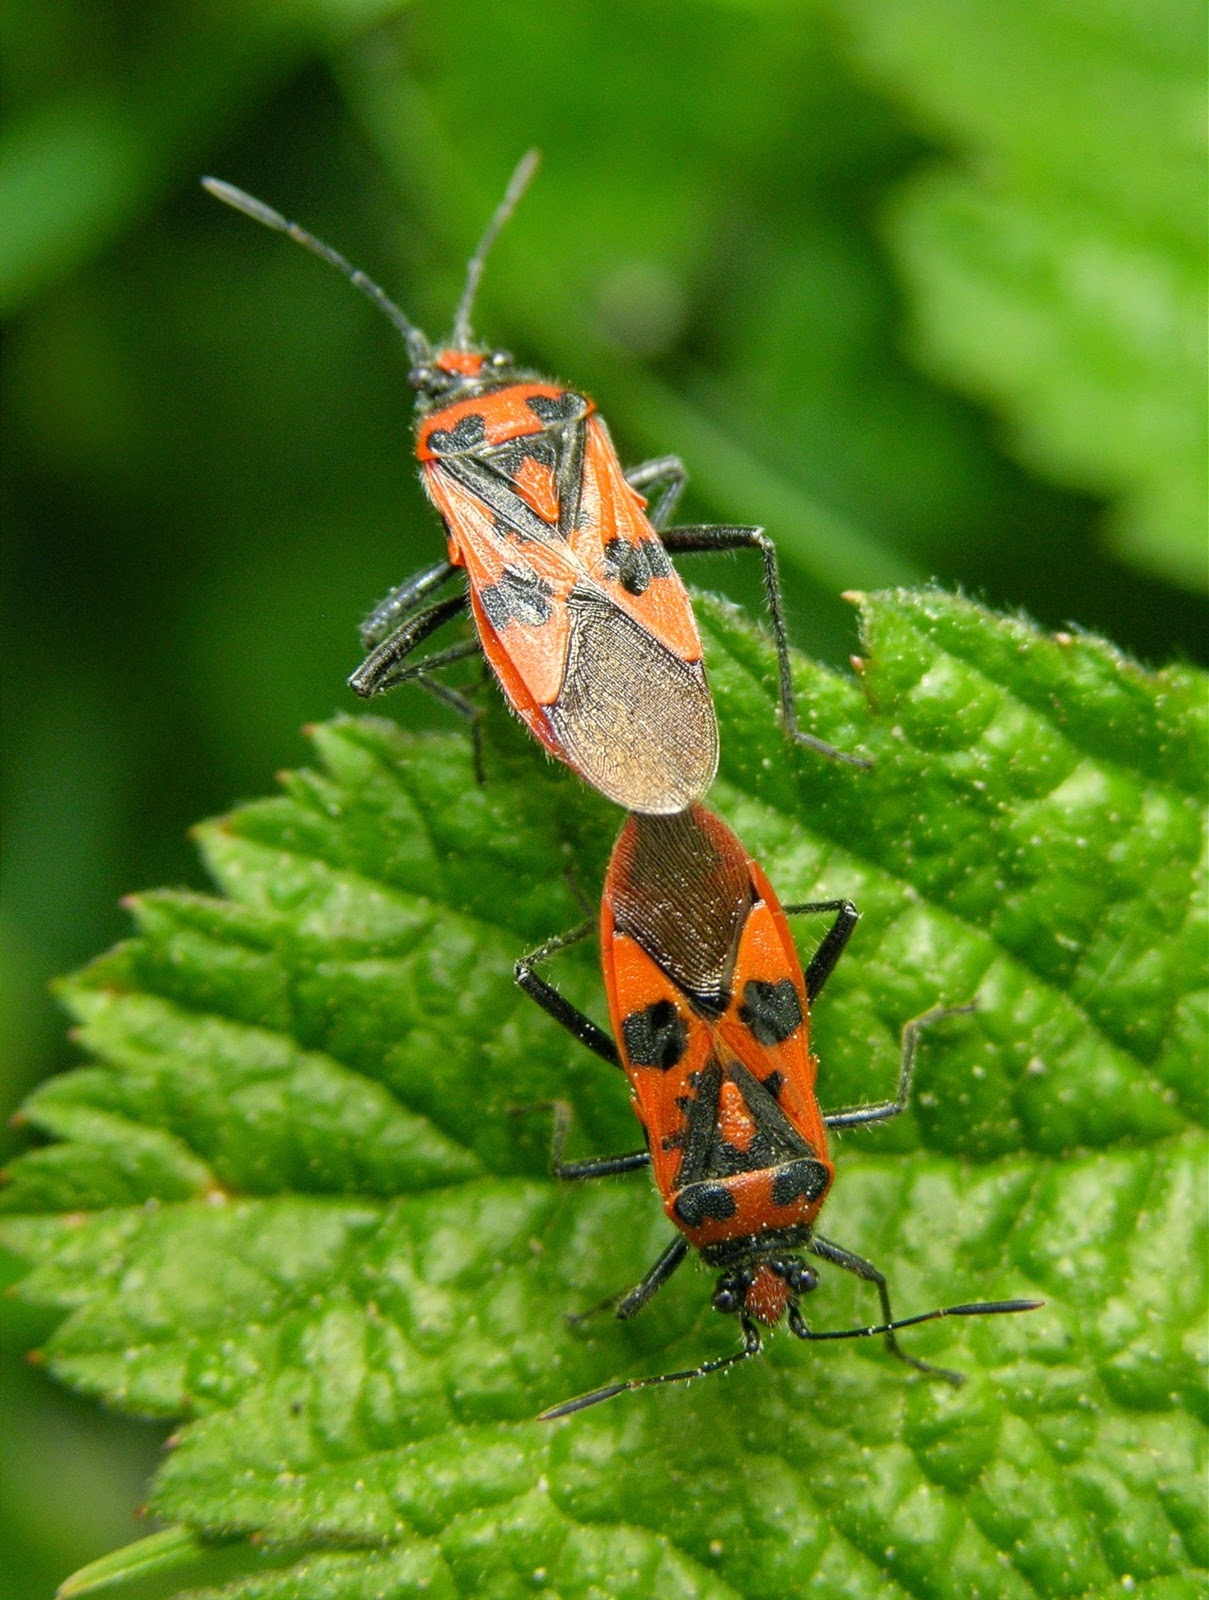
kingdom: Animalia
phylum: Arthropoda
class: Insecta
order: Hemiptera
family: Rhopalidae
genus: Corizus
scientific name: Corizus hyoscyami
